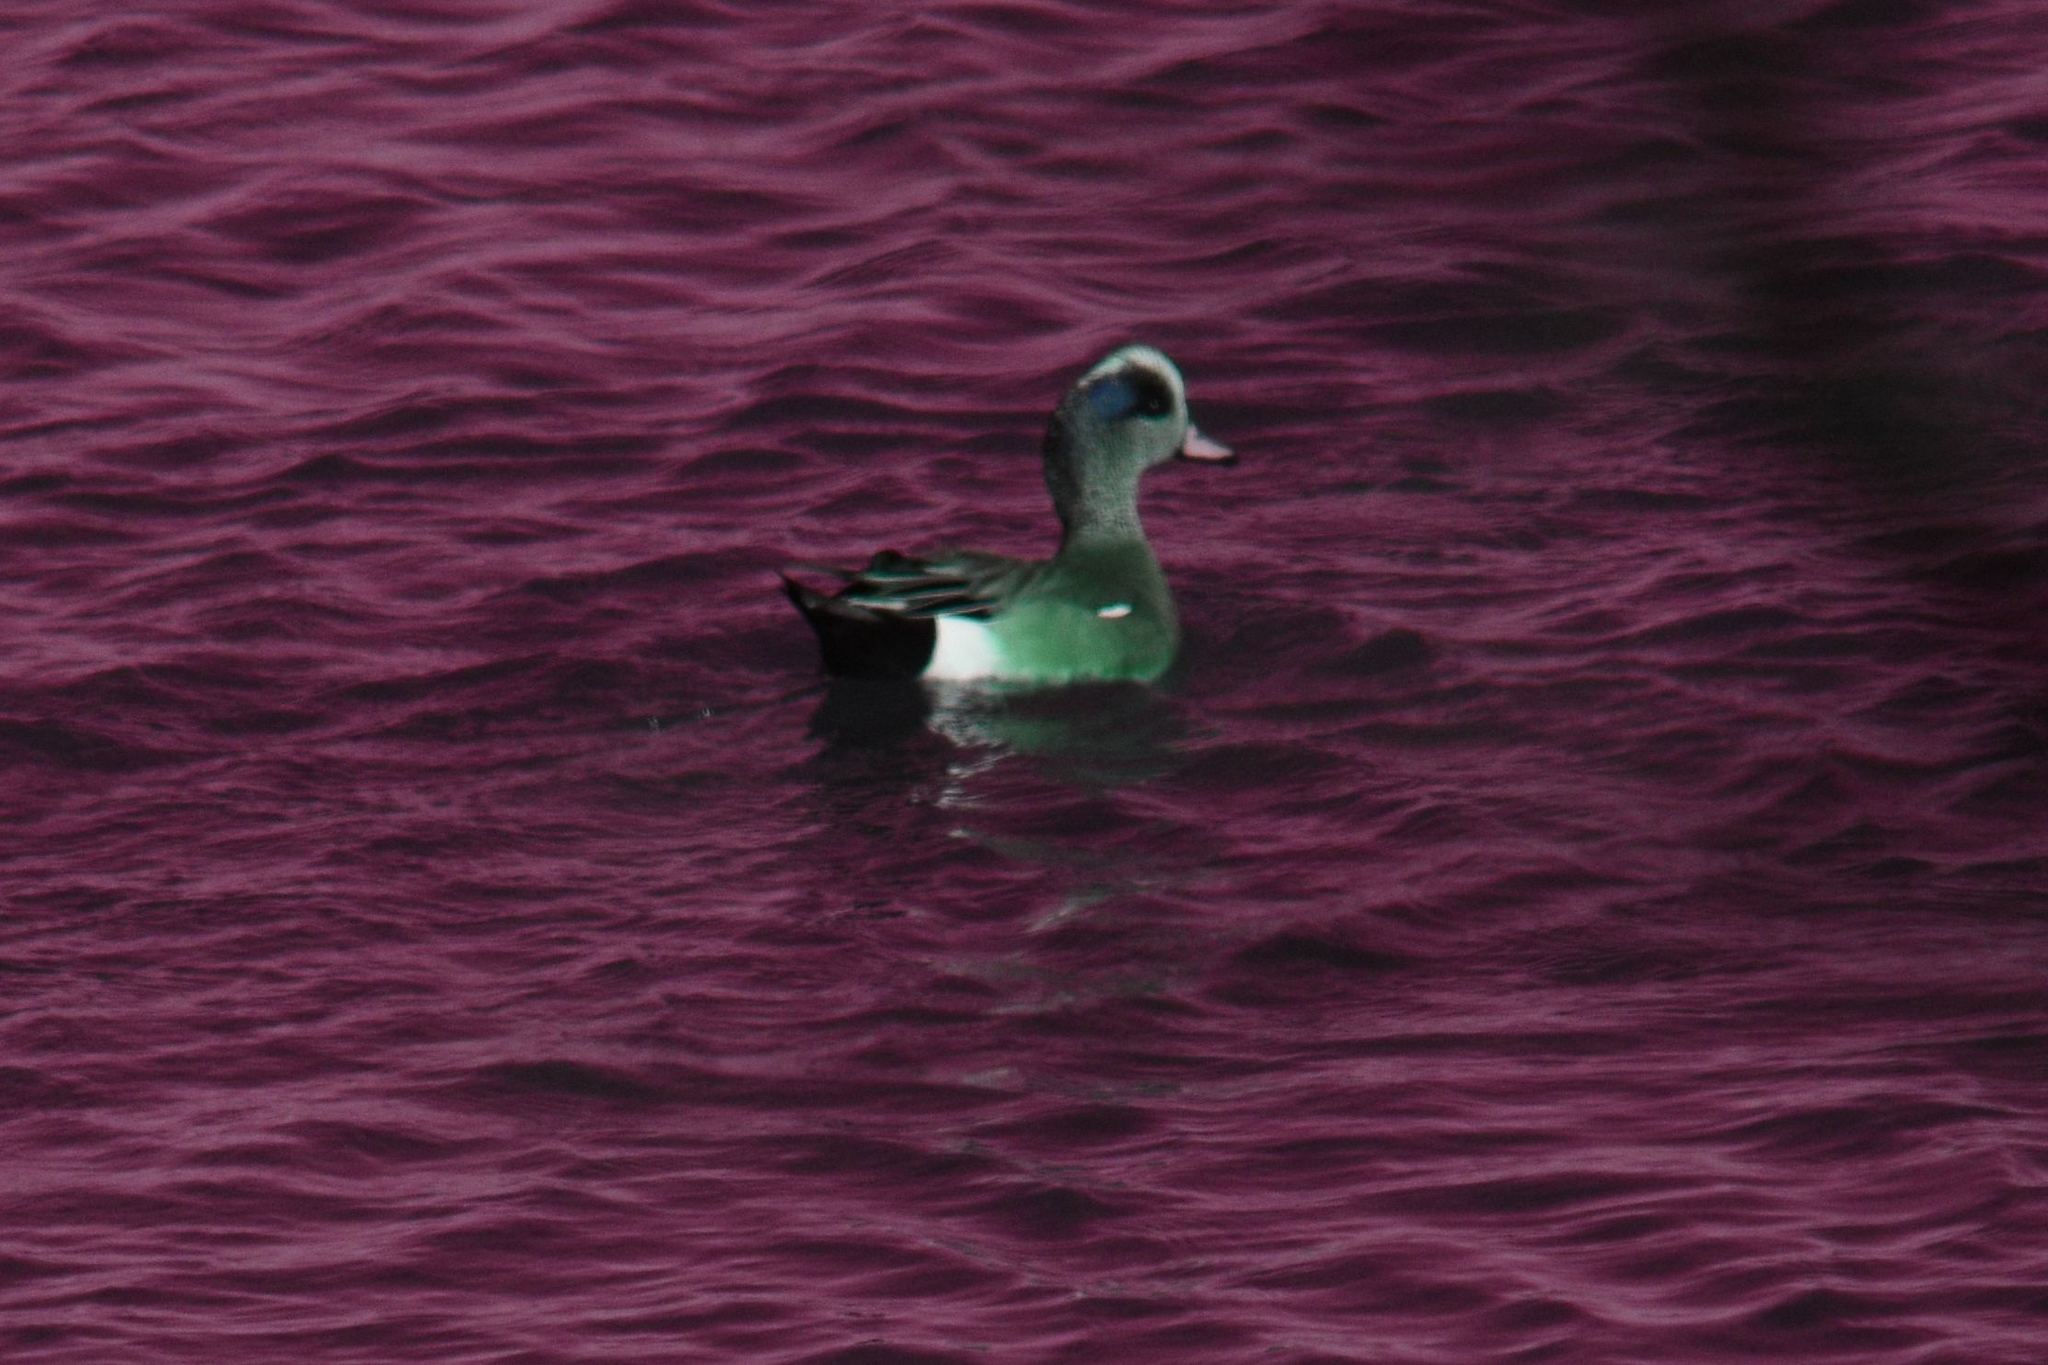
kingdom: Animalia
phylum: Chordata
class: Aves
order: Anseriformes
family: Anatidae
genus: Mareca
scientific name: Mareca americana
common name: American wigeon
